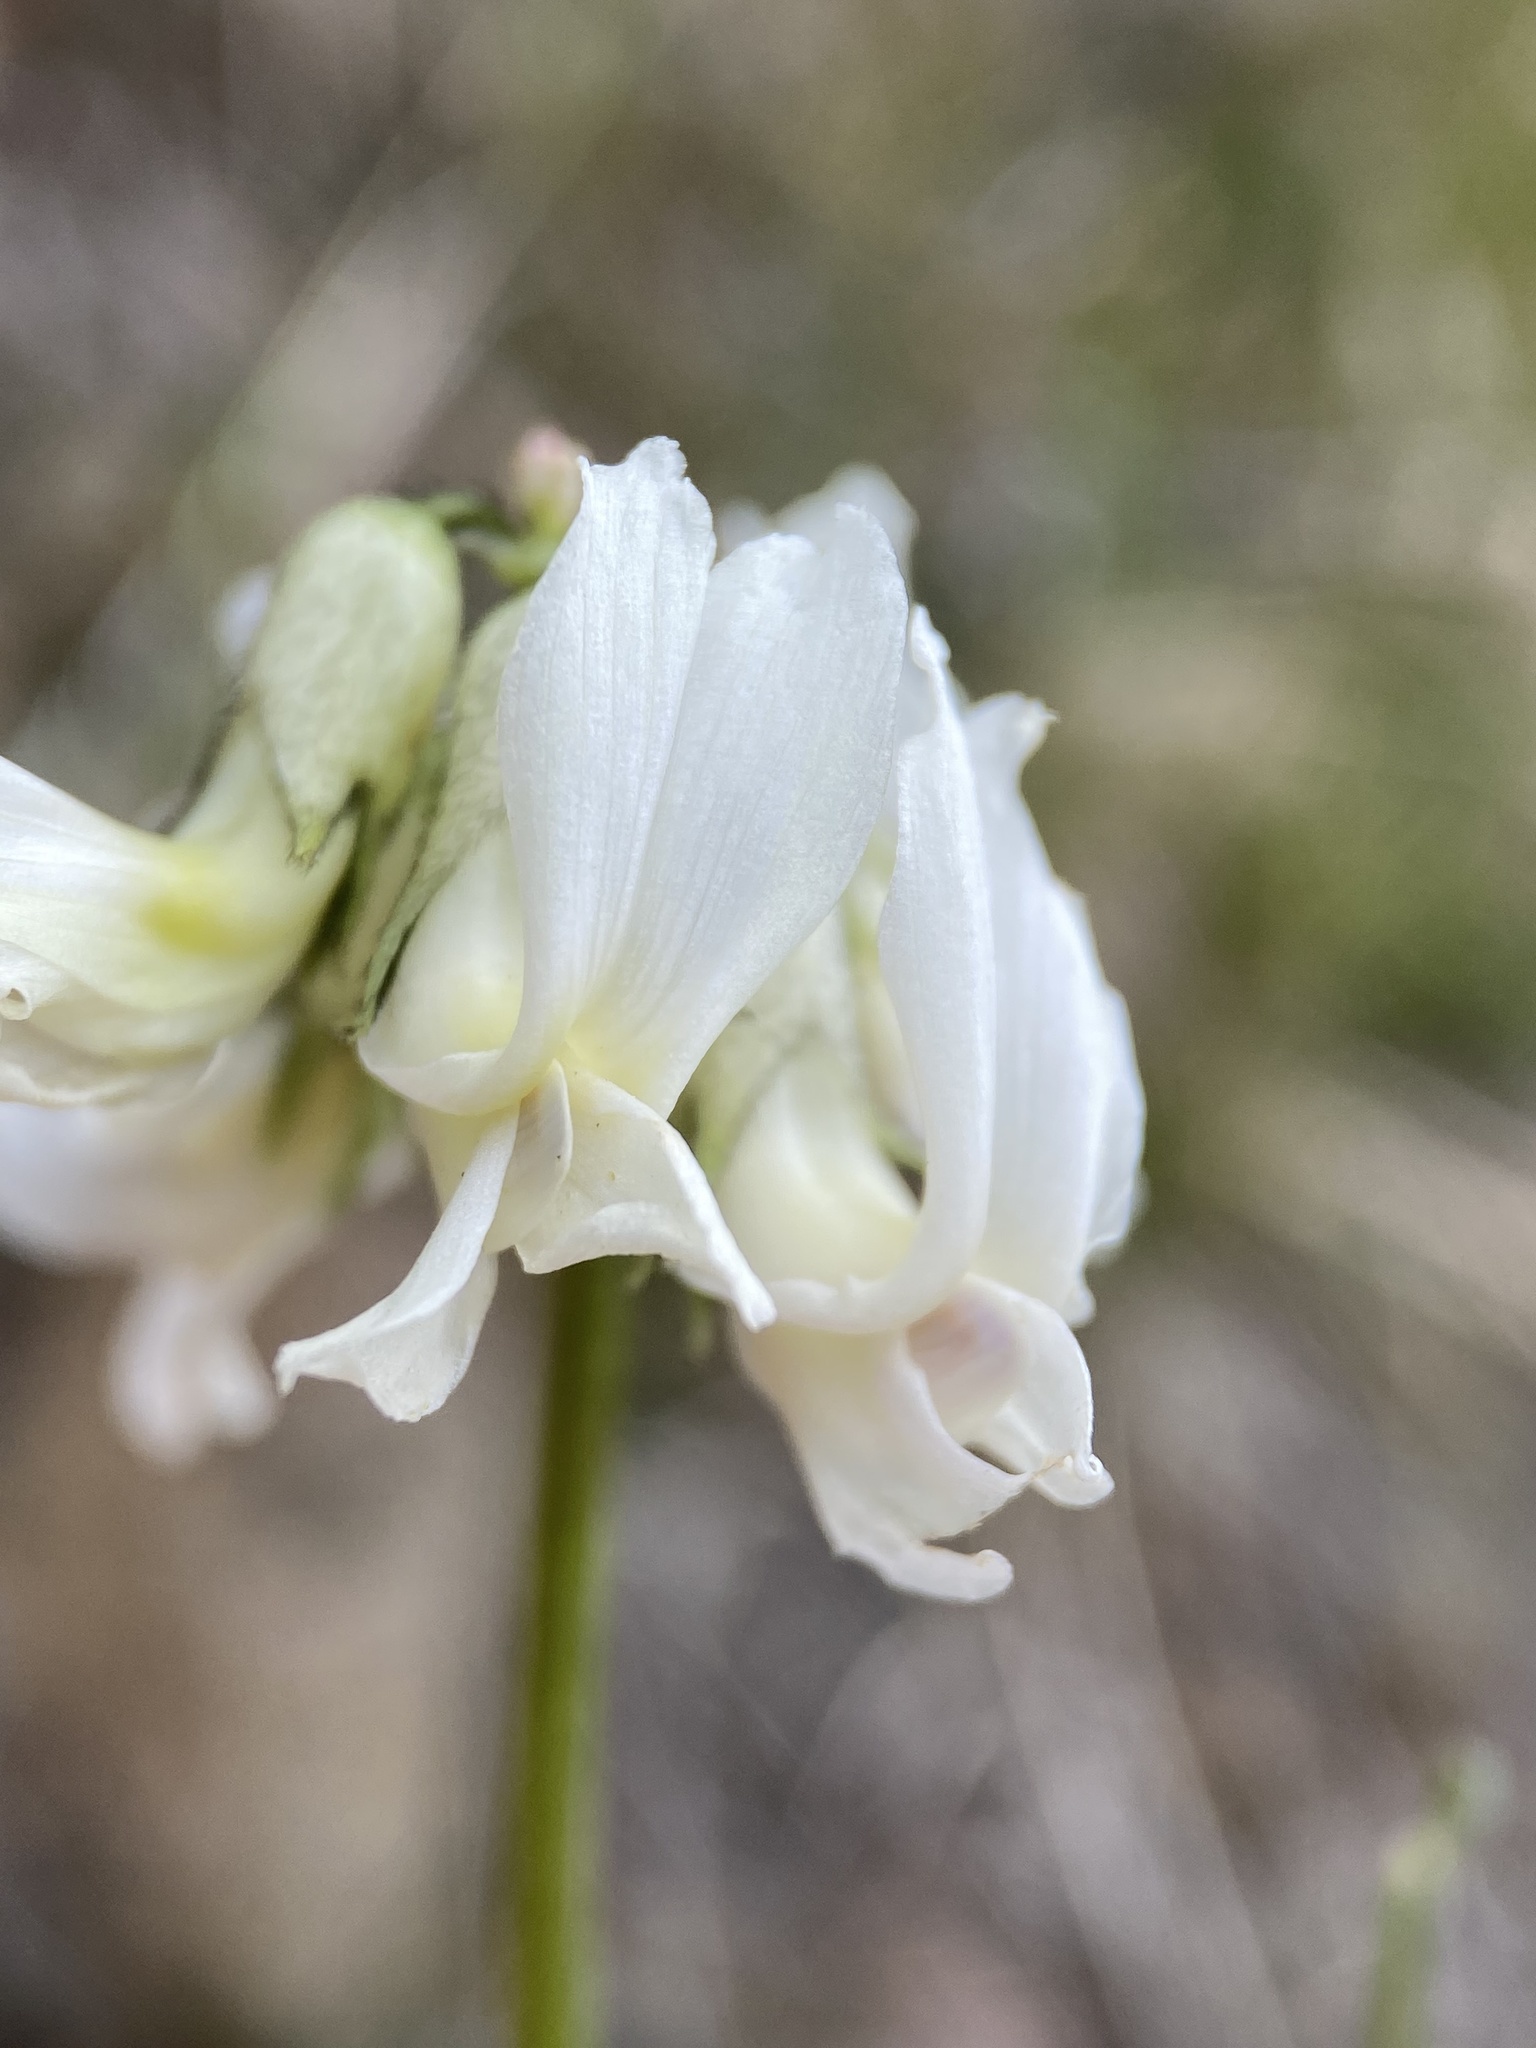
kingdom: Plantae
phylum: Tracheophyta
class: Magnoliopsida
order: Fabales
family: Fabaceae
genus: Astragalus
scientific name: Astragalus reventiformis
